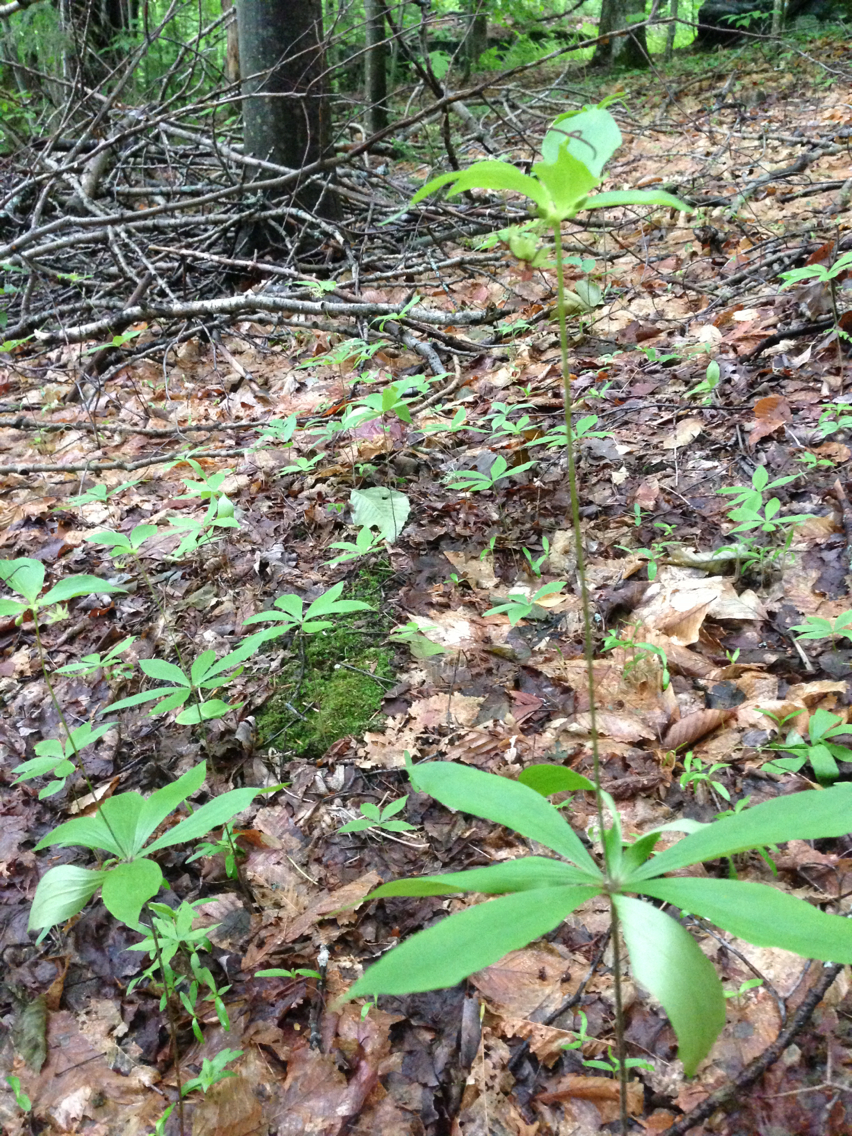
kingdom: Plantae
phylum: Tracheophyta
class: Liliopsida
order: Liliales
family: Liliaceae
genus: Medeola
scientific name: Medeola virginiana
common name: Indian cucumber-root
